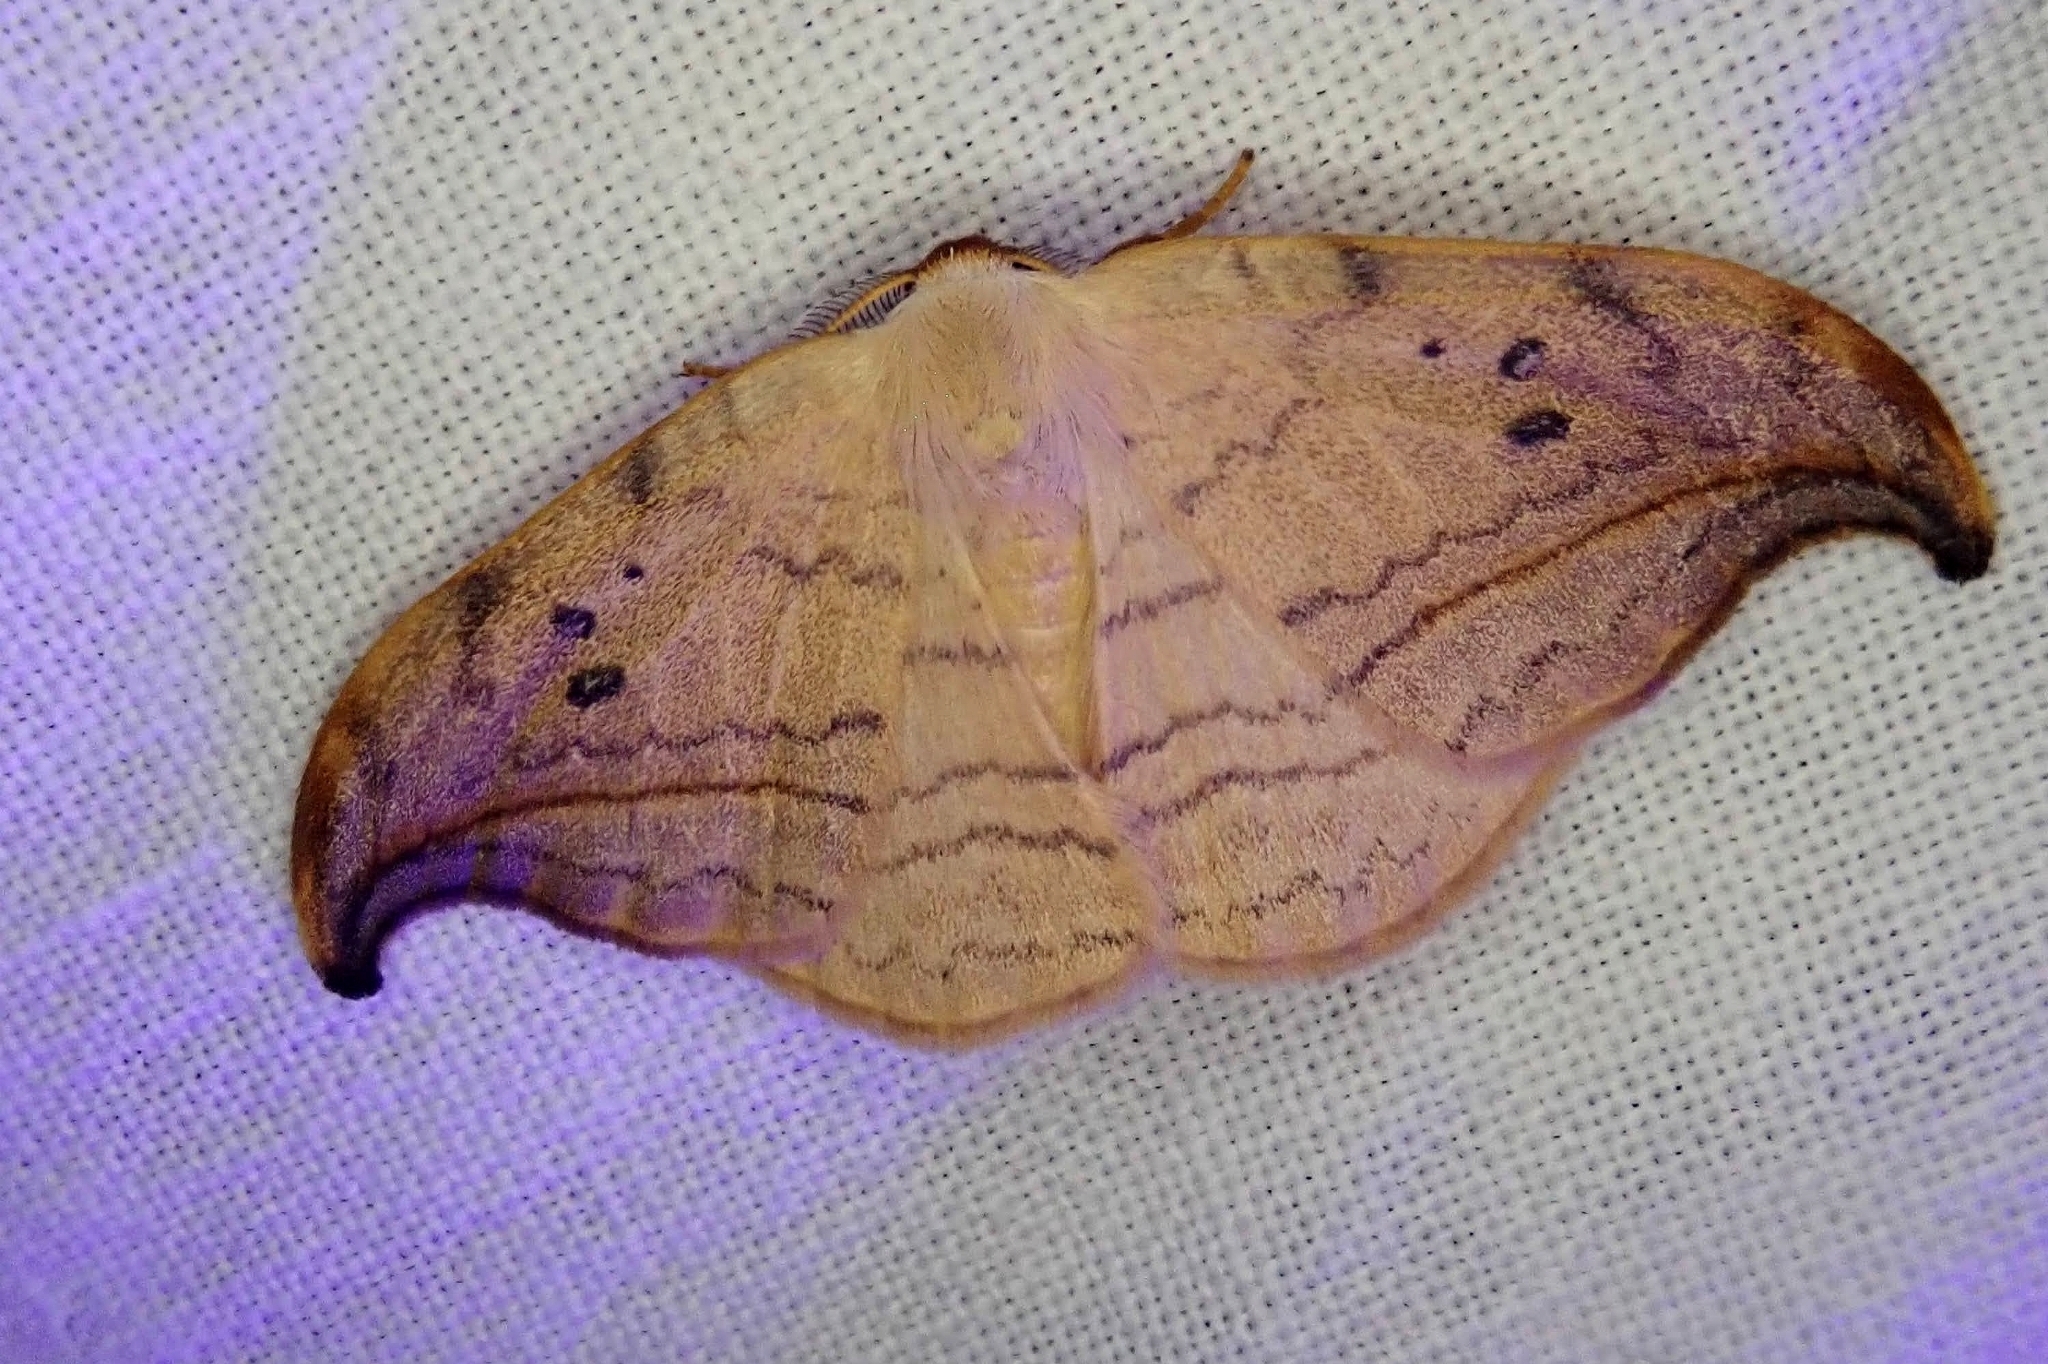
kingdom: Animalia
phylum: Arthropoda
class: Insecta
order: Lepidoptera
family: Drepanidae
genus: Drepana
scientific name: Drepana arcuata
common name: Arched hooktip moth
